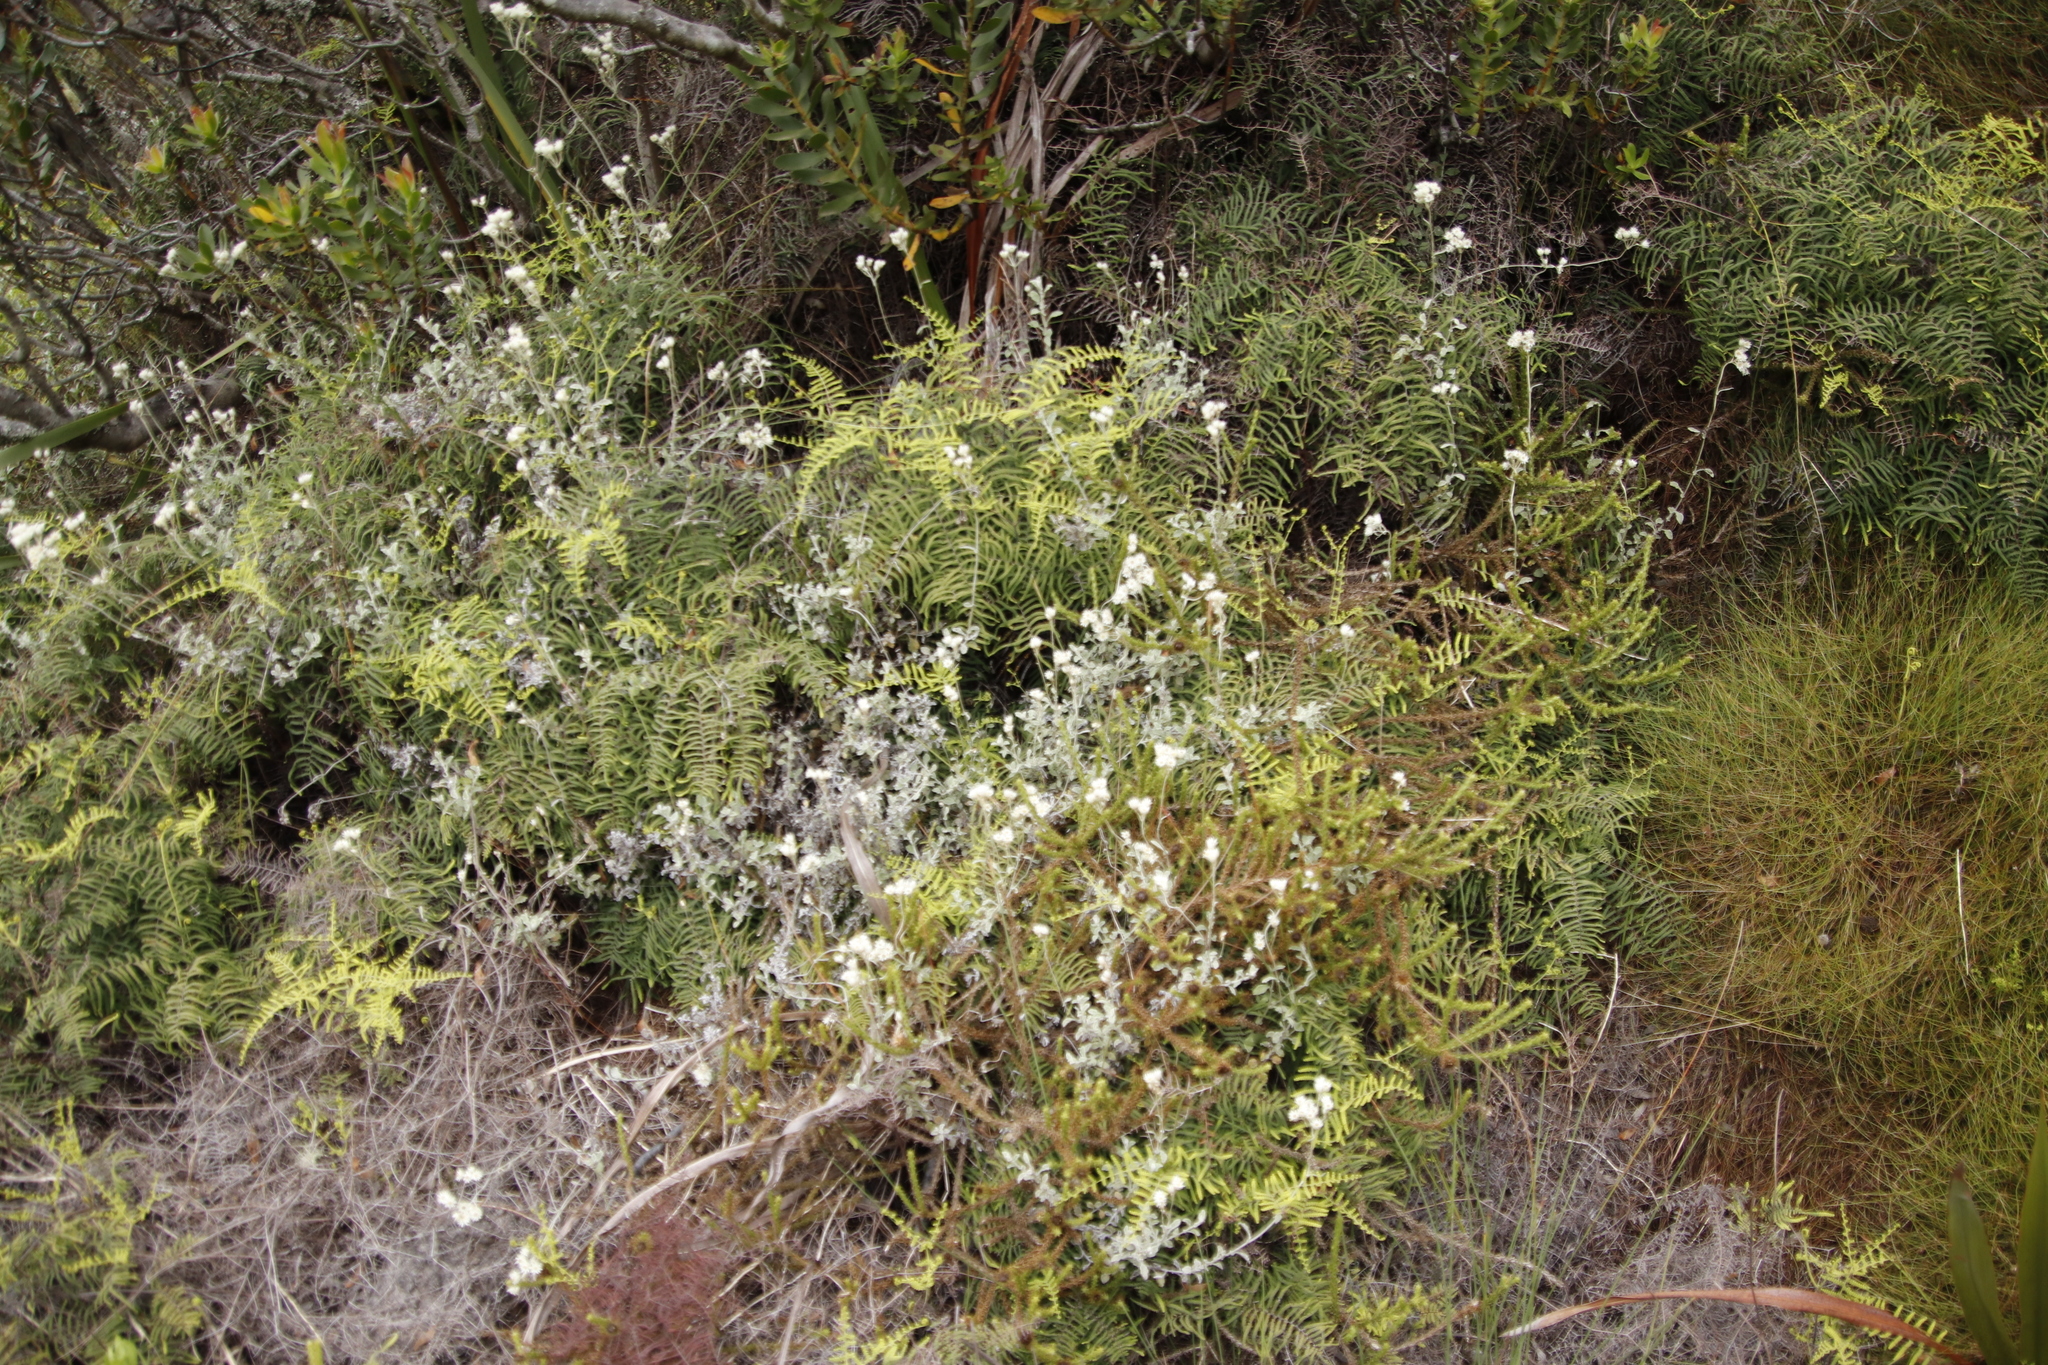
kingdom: Plantae
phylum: Tracheophyta
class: Magnoliopsida
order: Asterales
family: Asteraceae
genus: Helichrysum
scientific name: Helichrysum pandurifolium
